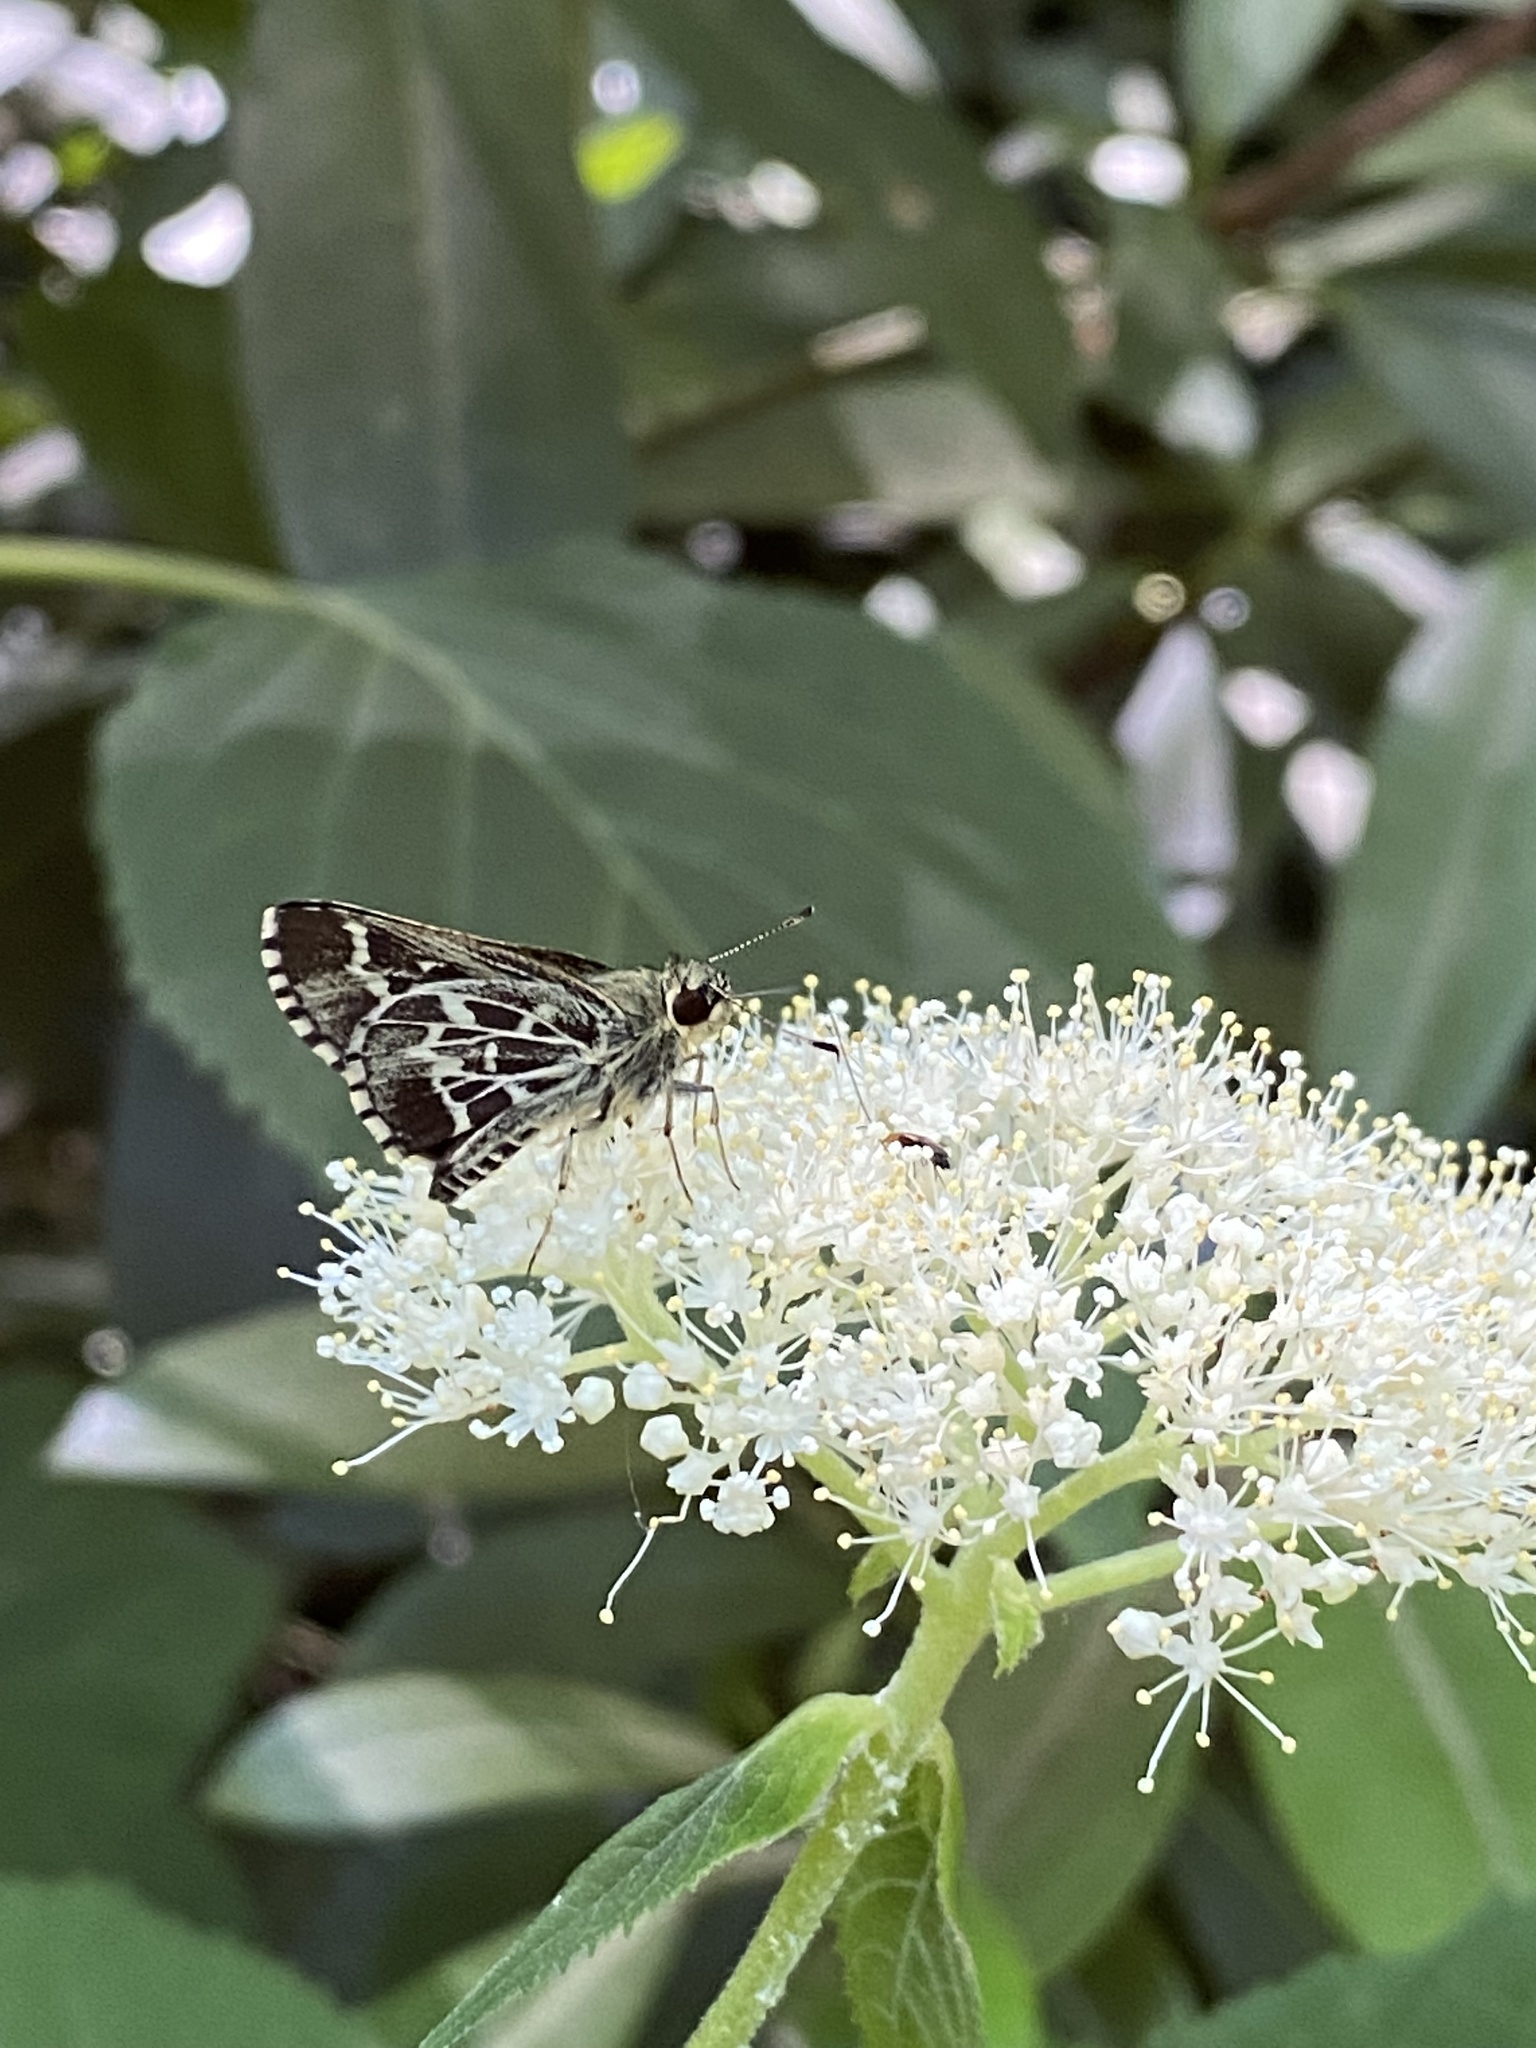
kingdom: Animalia
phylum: Arthropoda
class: Insecta
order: Lepidoptera
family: Hesperiidae
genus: Mastor
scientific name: Mastor aesculapius
